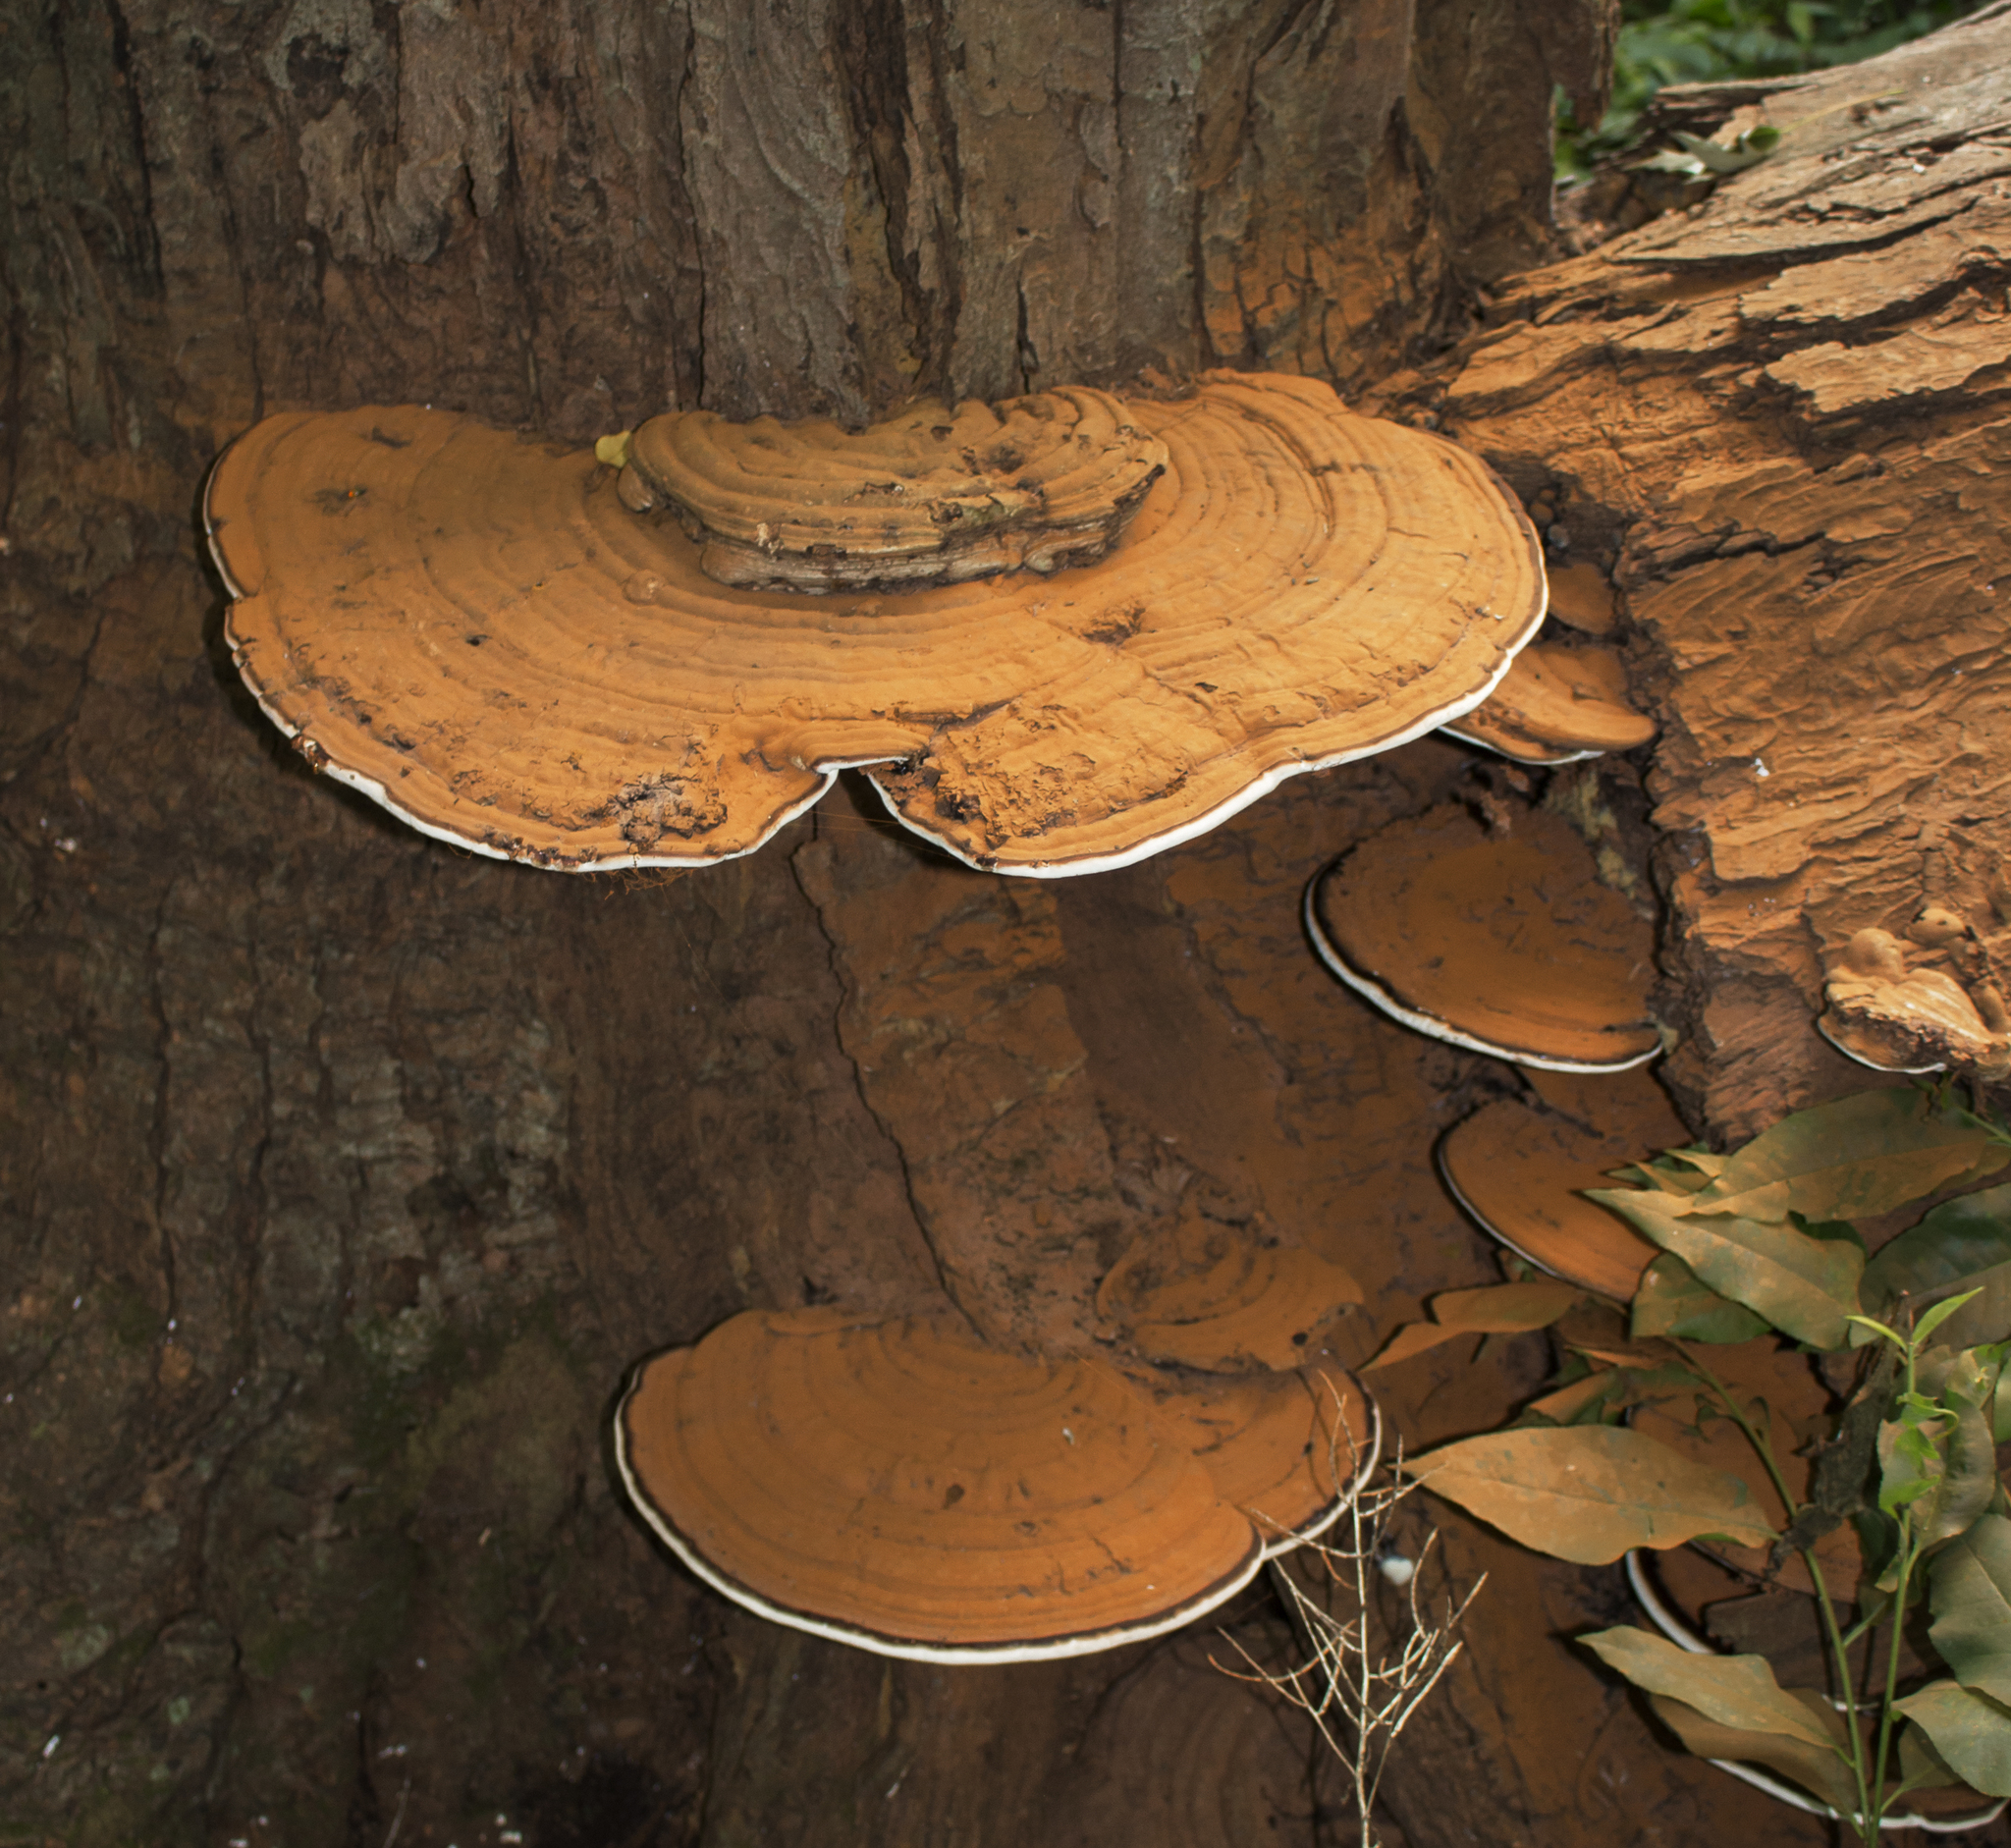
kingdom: Fungi
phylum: Basidiomycota
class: Agaricomycetes
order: Polyporales
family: Polyporaceae
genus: Ganoderma
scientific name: Ganoderma applanatum
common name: Artist's bracket
